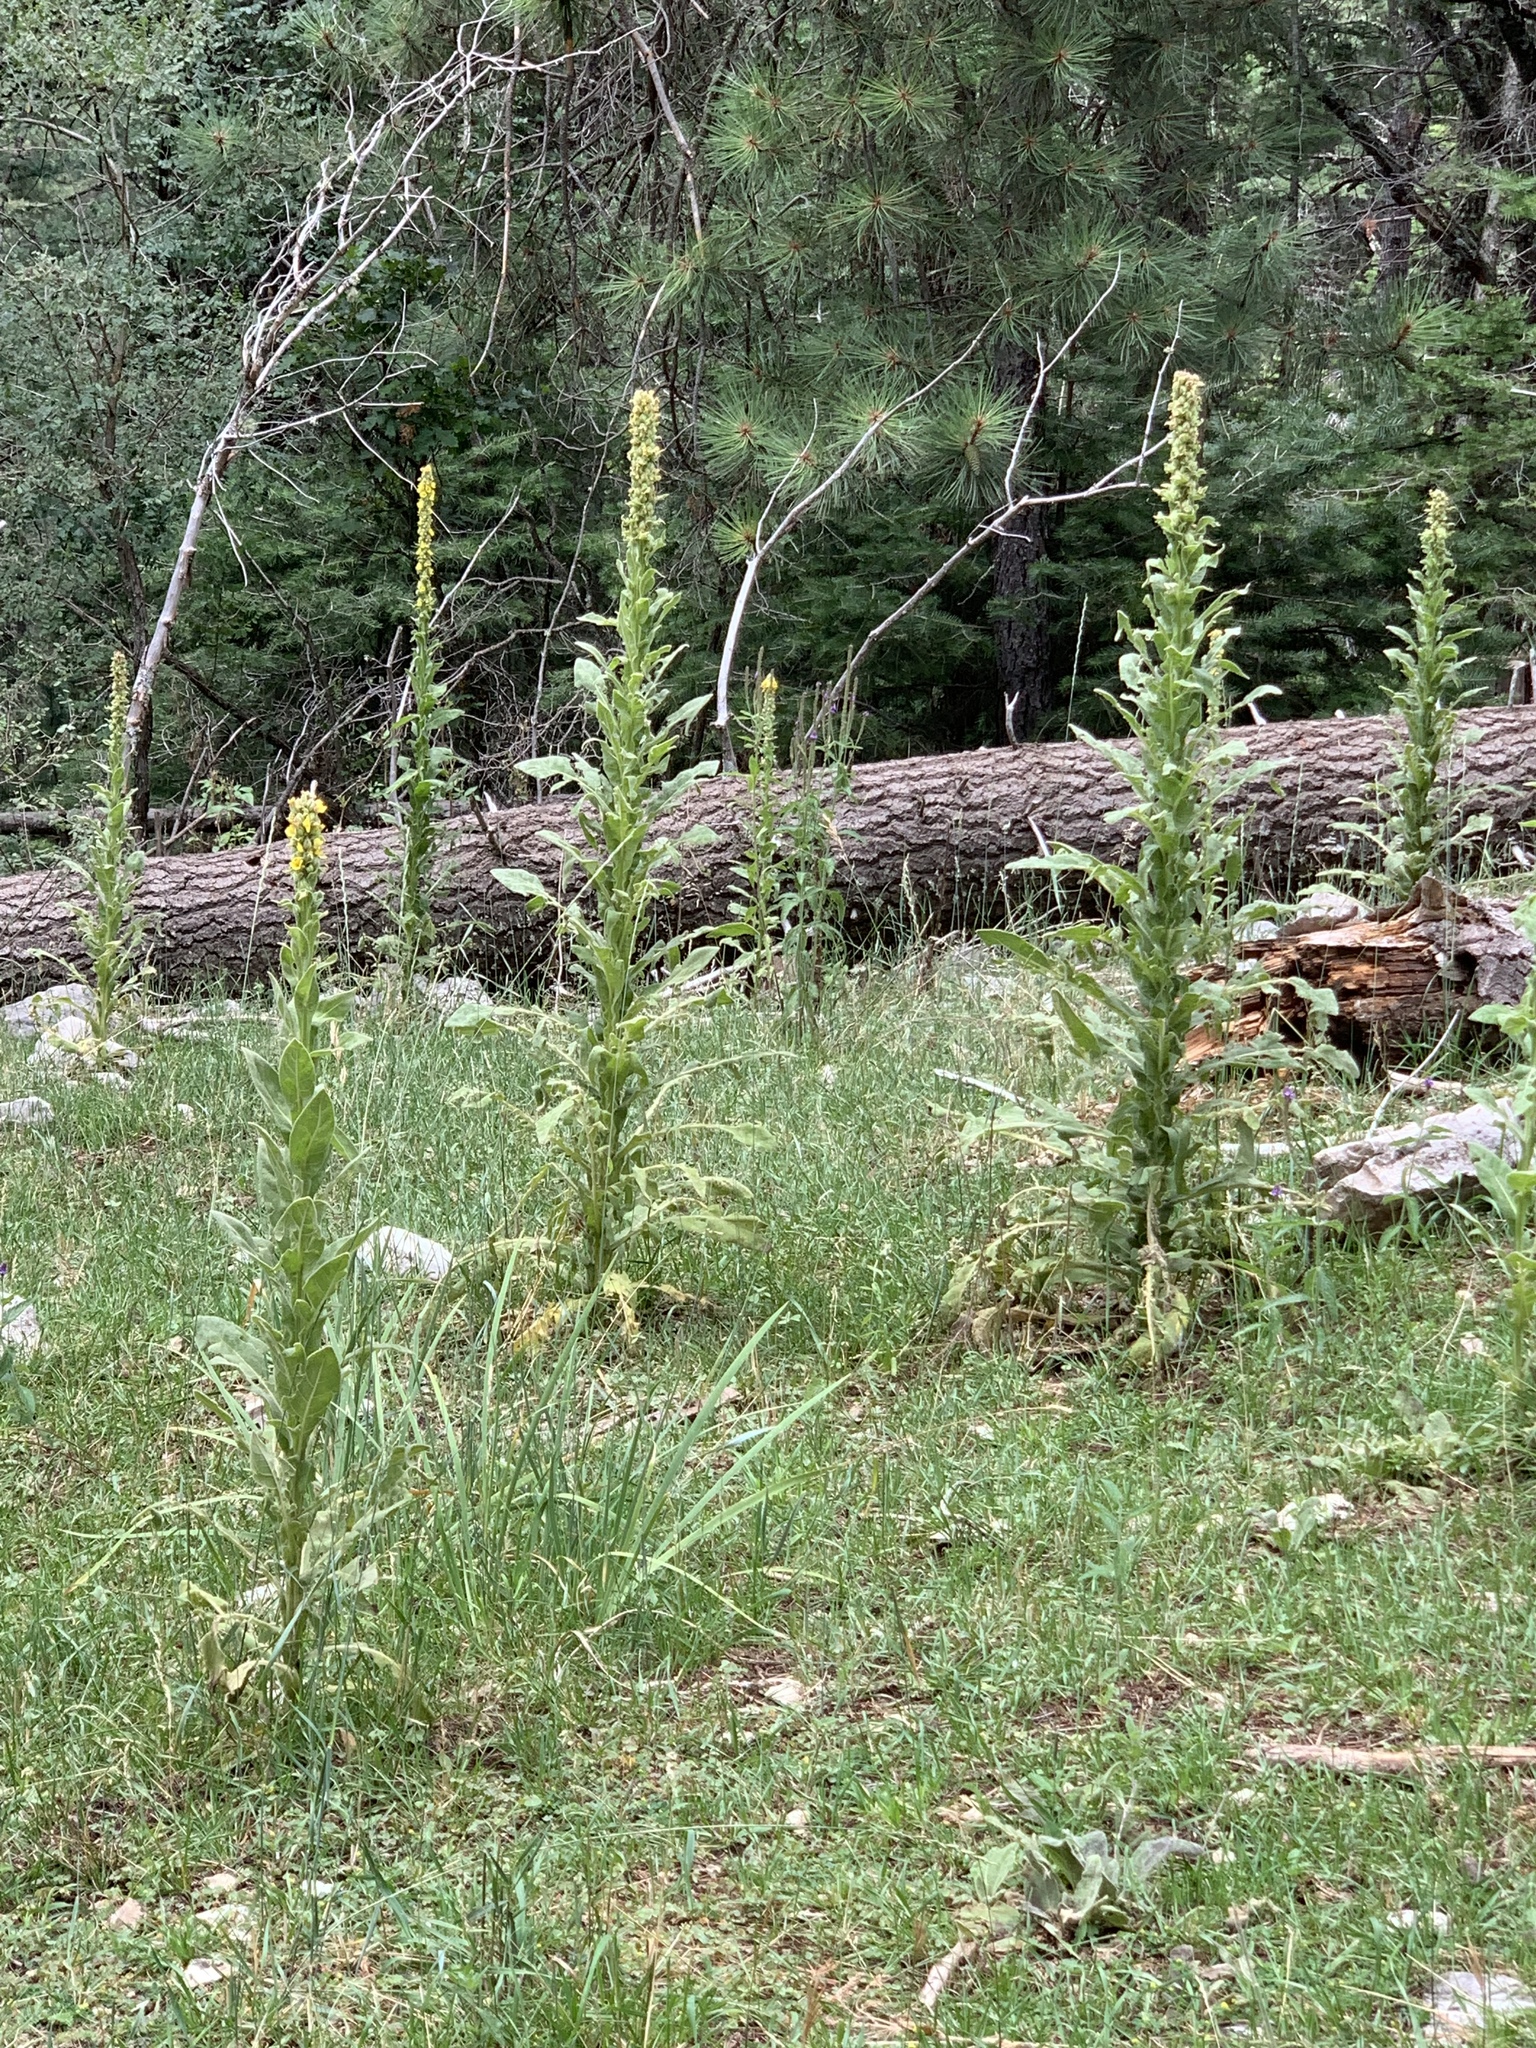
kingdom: Plantae
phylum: Tracheophyta
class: Magnoliopsida
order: Lamiales
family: Scrophulariaceae
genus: Verbascum
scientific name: Verbascum thapsus
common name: Common mullein
